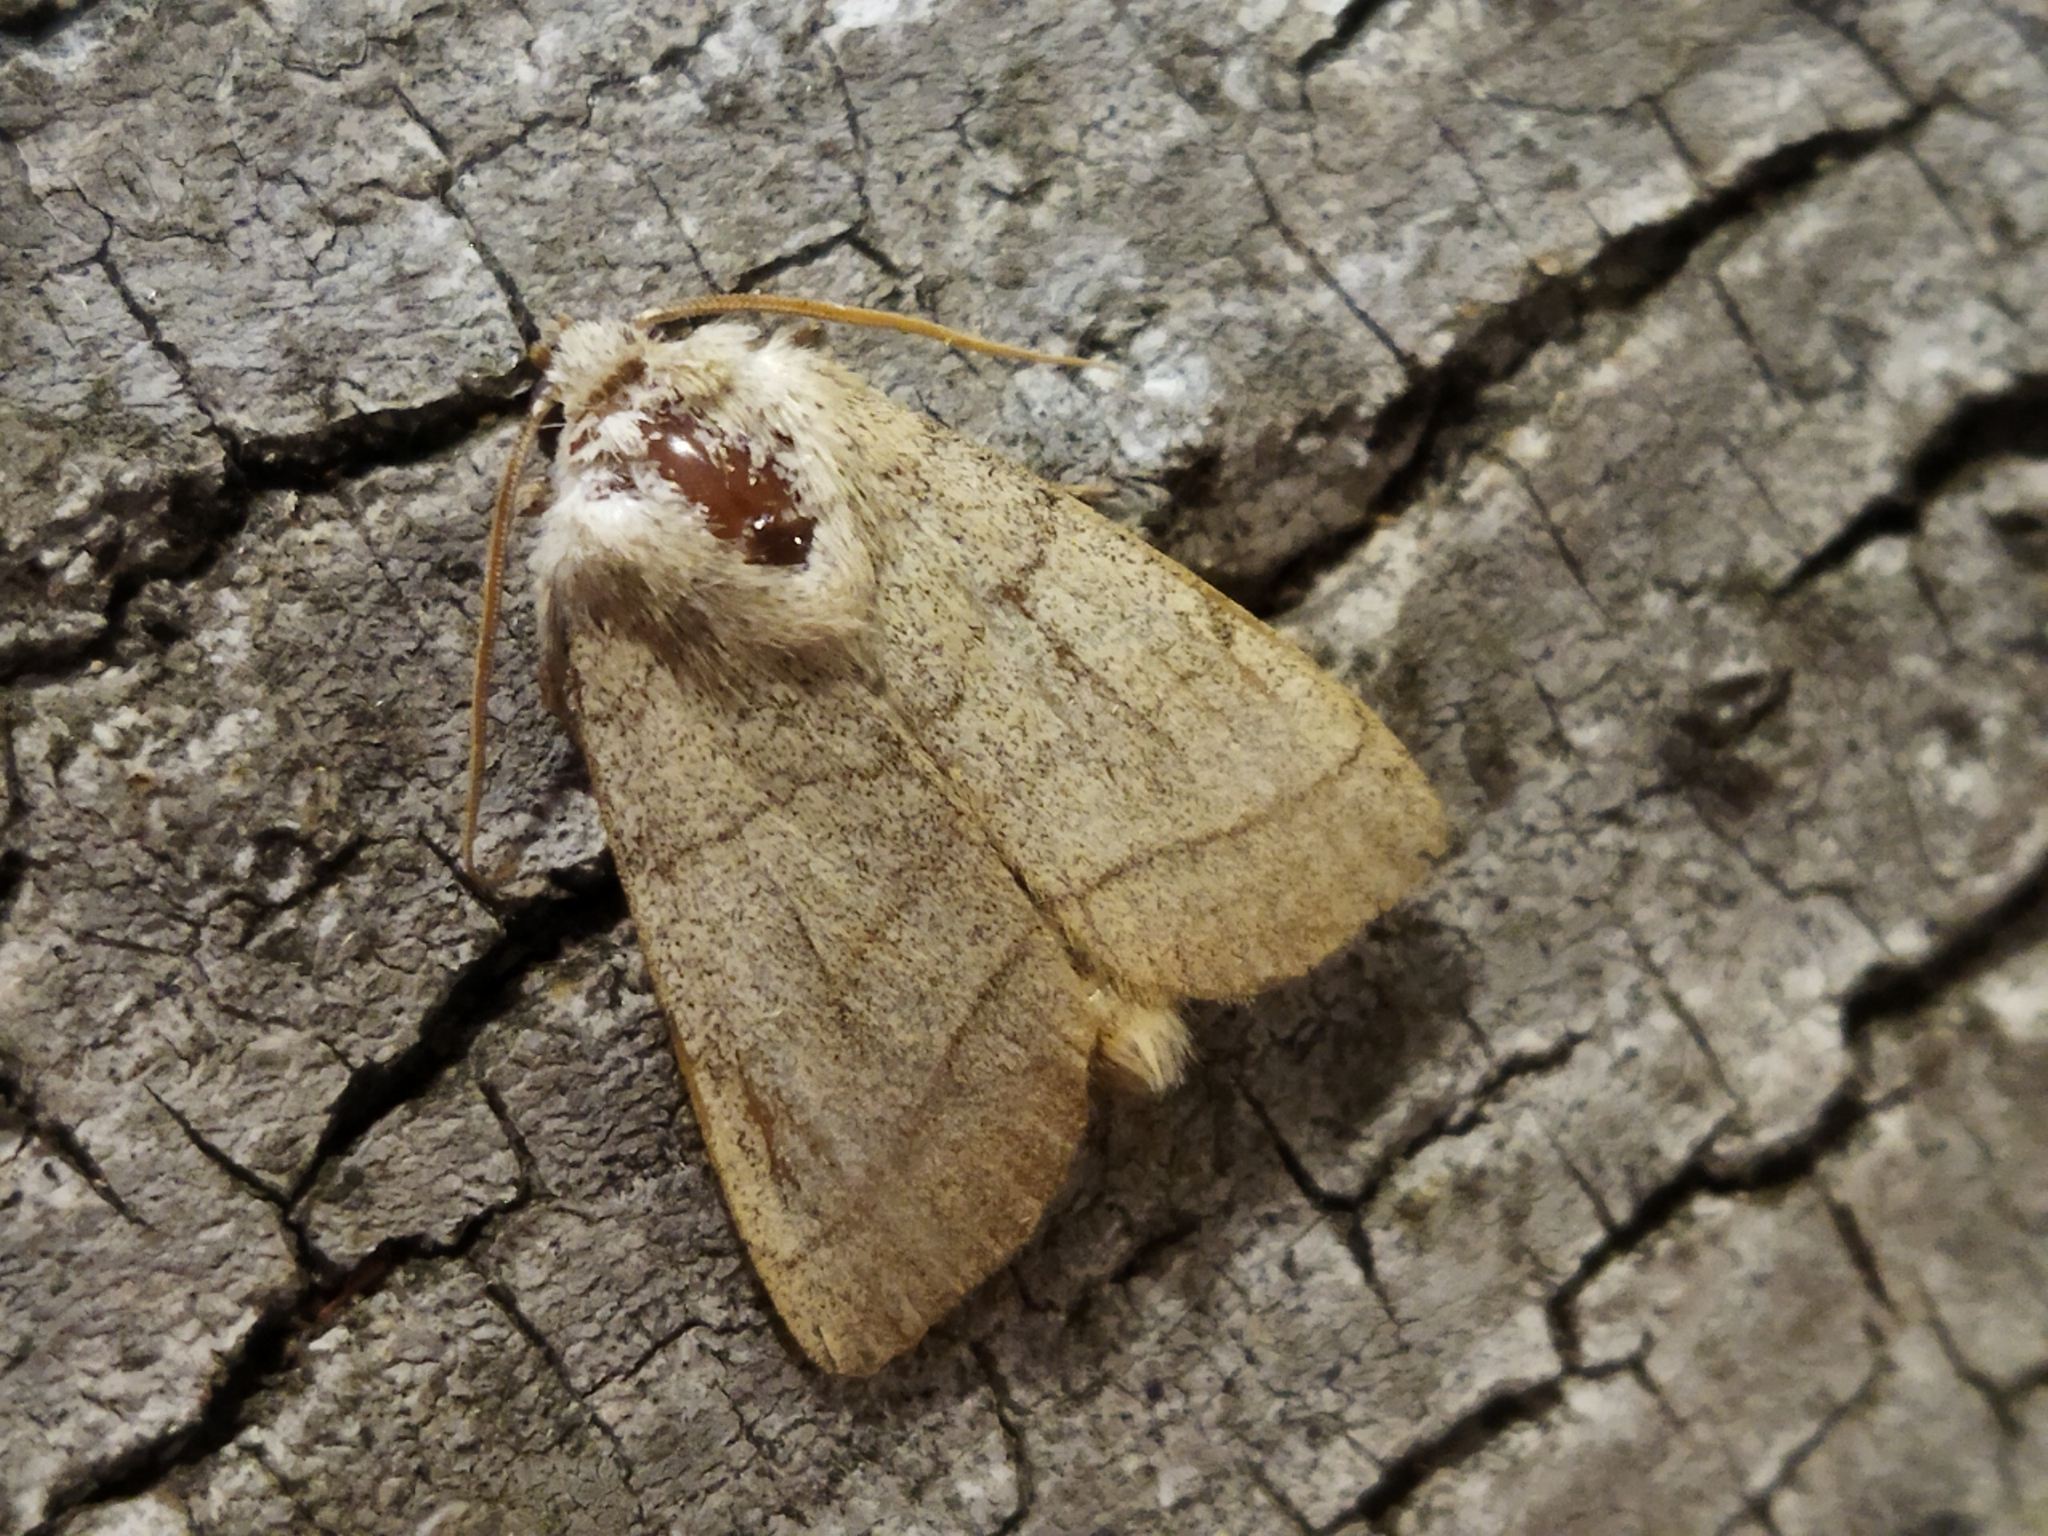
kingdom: Animalia
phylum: Arthropoda
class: Insecta
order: Lepidoptera
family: Noctuidae
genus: Charanyca
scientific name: Charanyca trigrammica
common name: Treble lines
